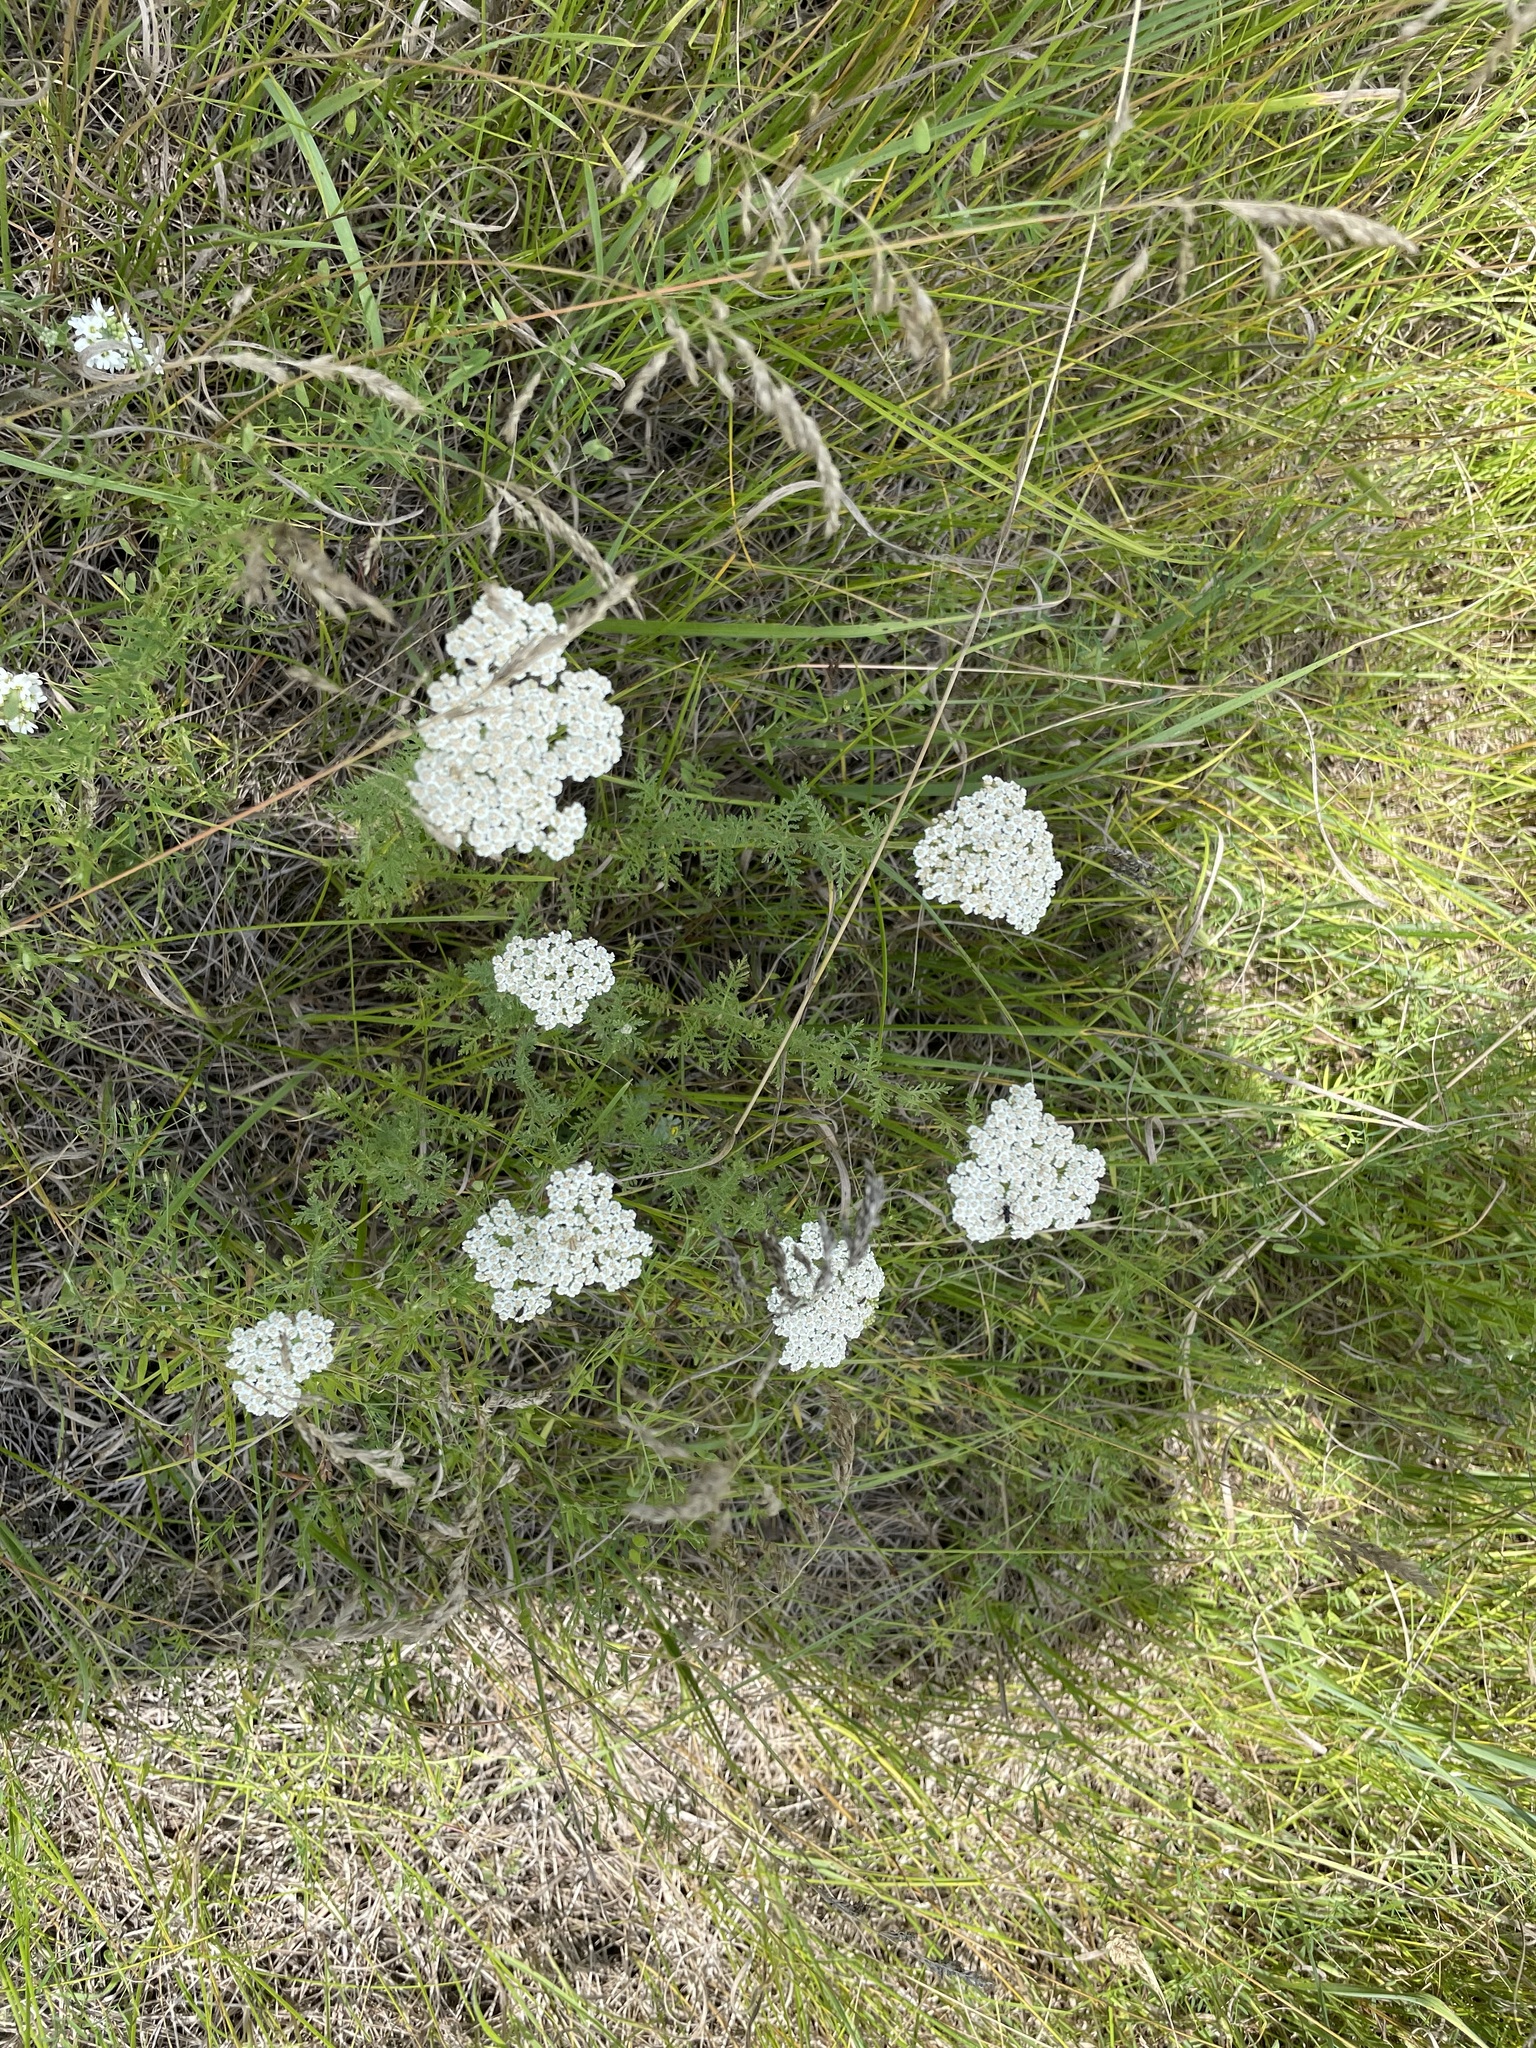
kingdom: Plantae
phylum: Tracheophyta
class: Magnoliopsida
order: Asterales
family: Asteraceae
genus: Achillea
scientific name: Achillea nobilis
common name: Noble yarrow
